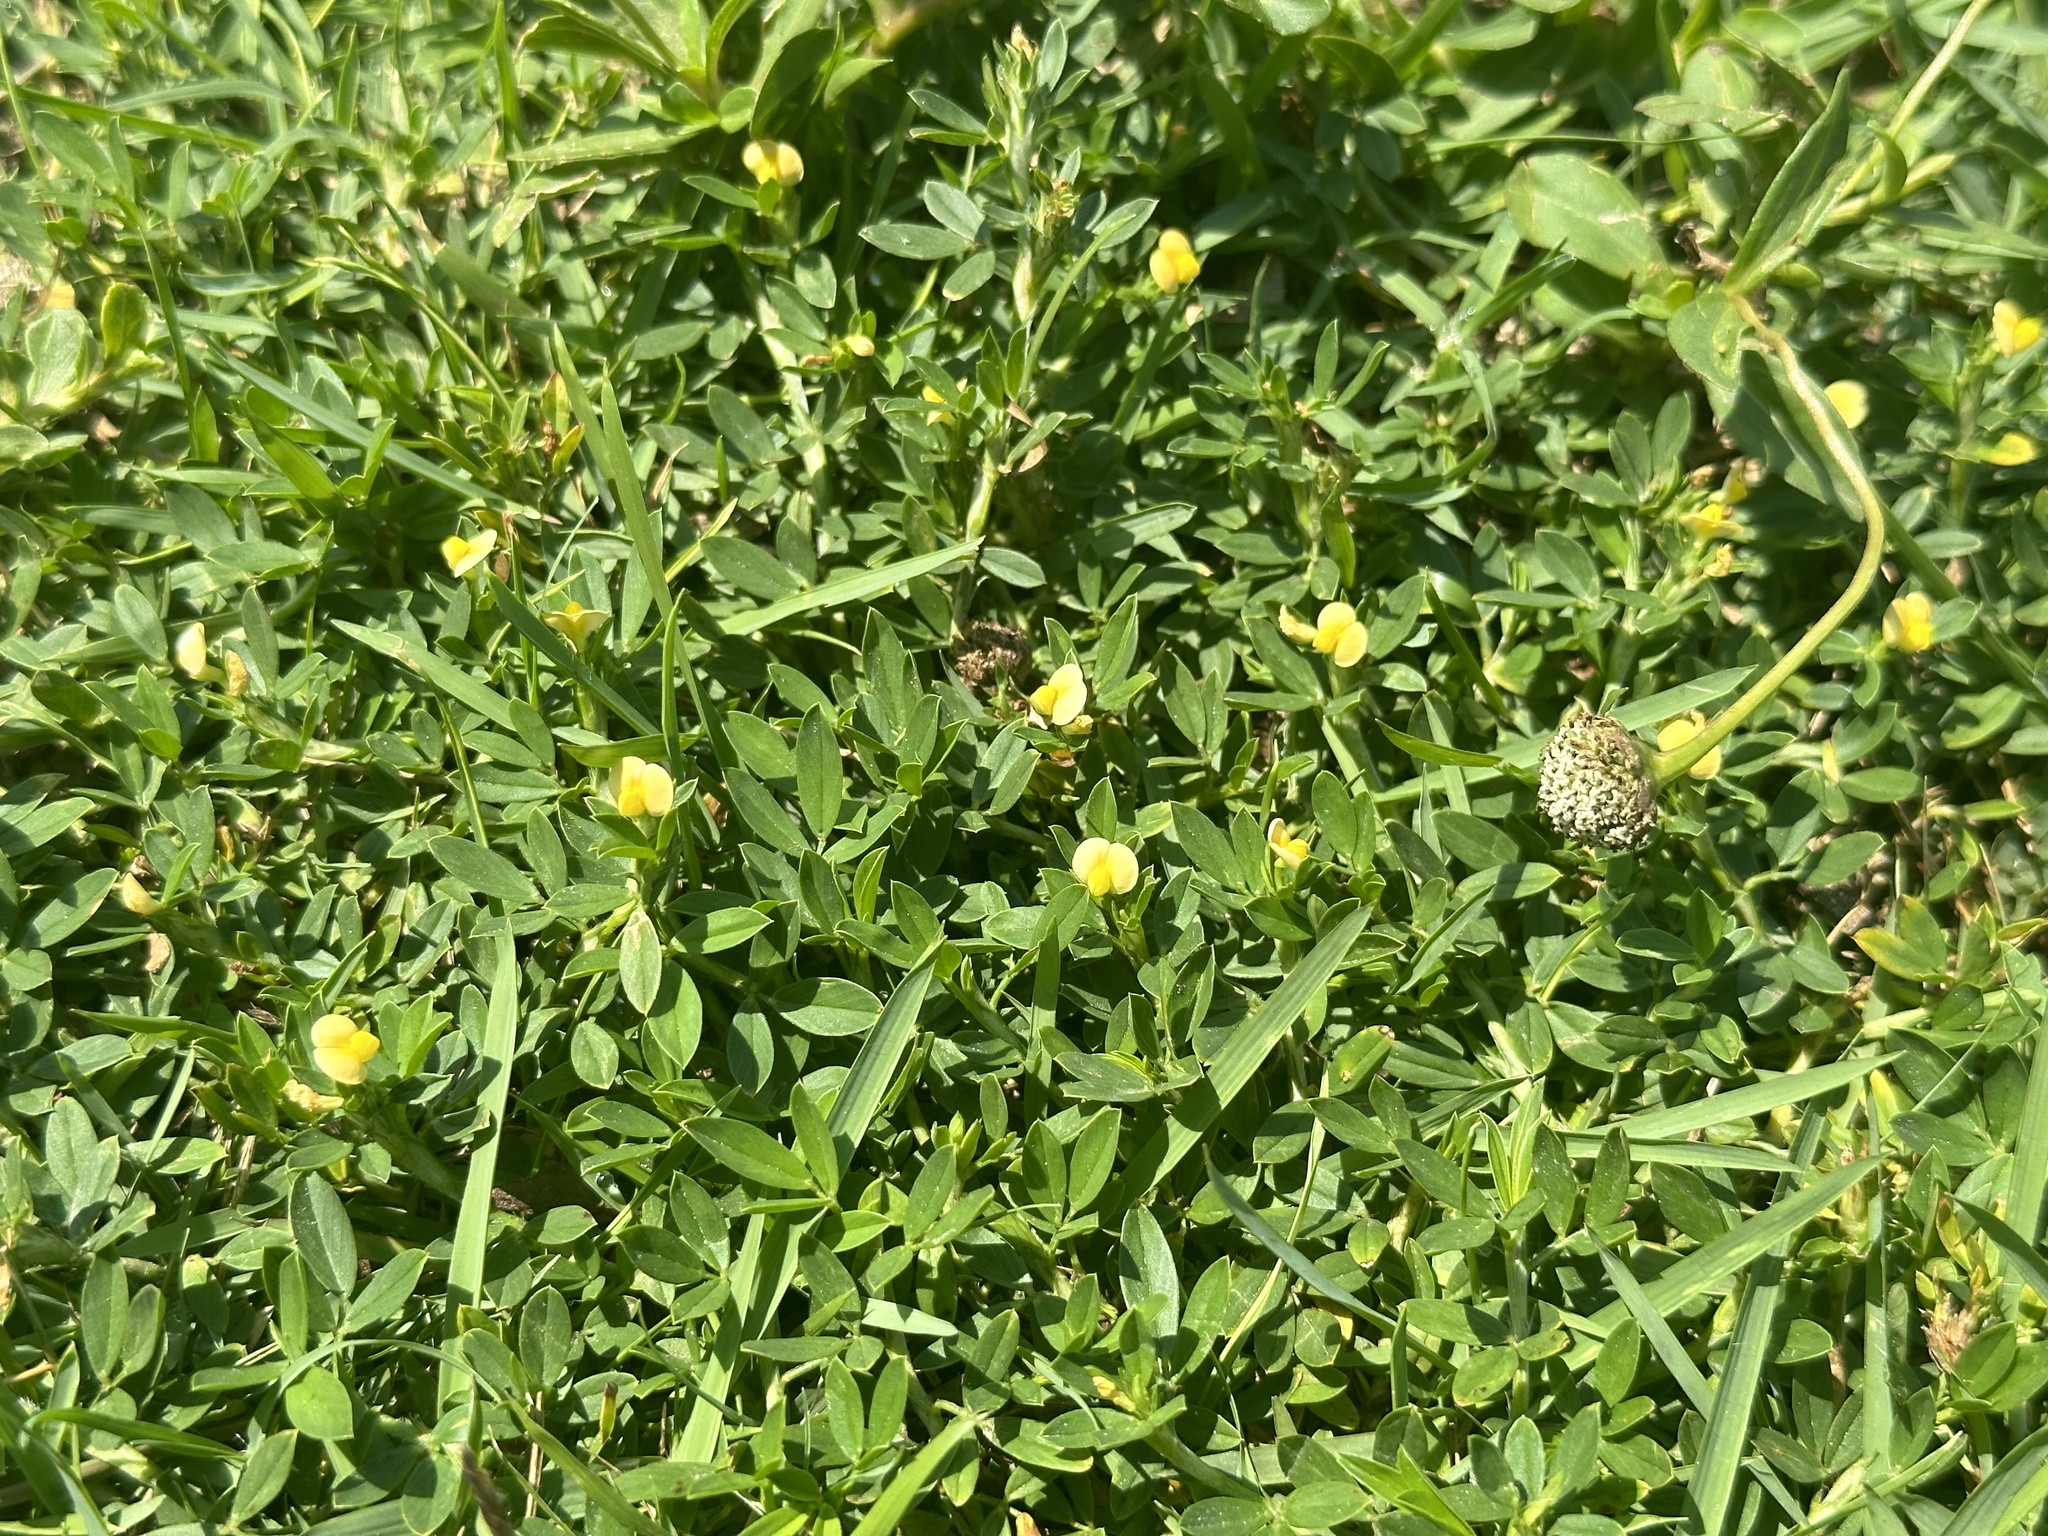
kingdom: Plantae
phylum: Tracheophyta
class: Magnoliopsida
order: Fabales
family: Fabaceae
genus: Stylosanthes
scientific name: Stylosanthes hamata
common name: Cheesytoes
